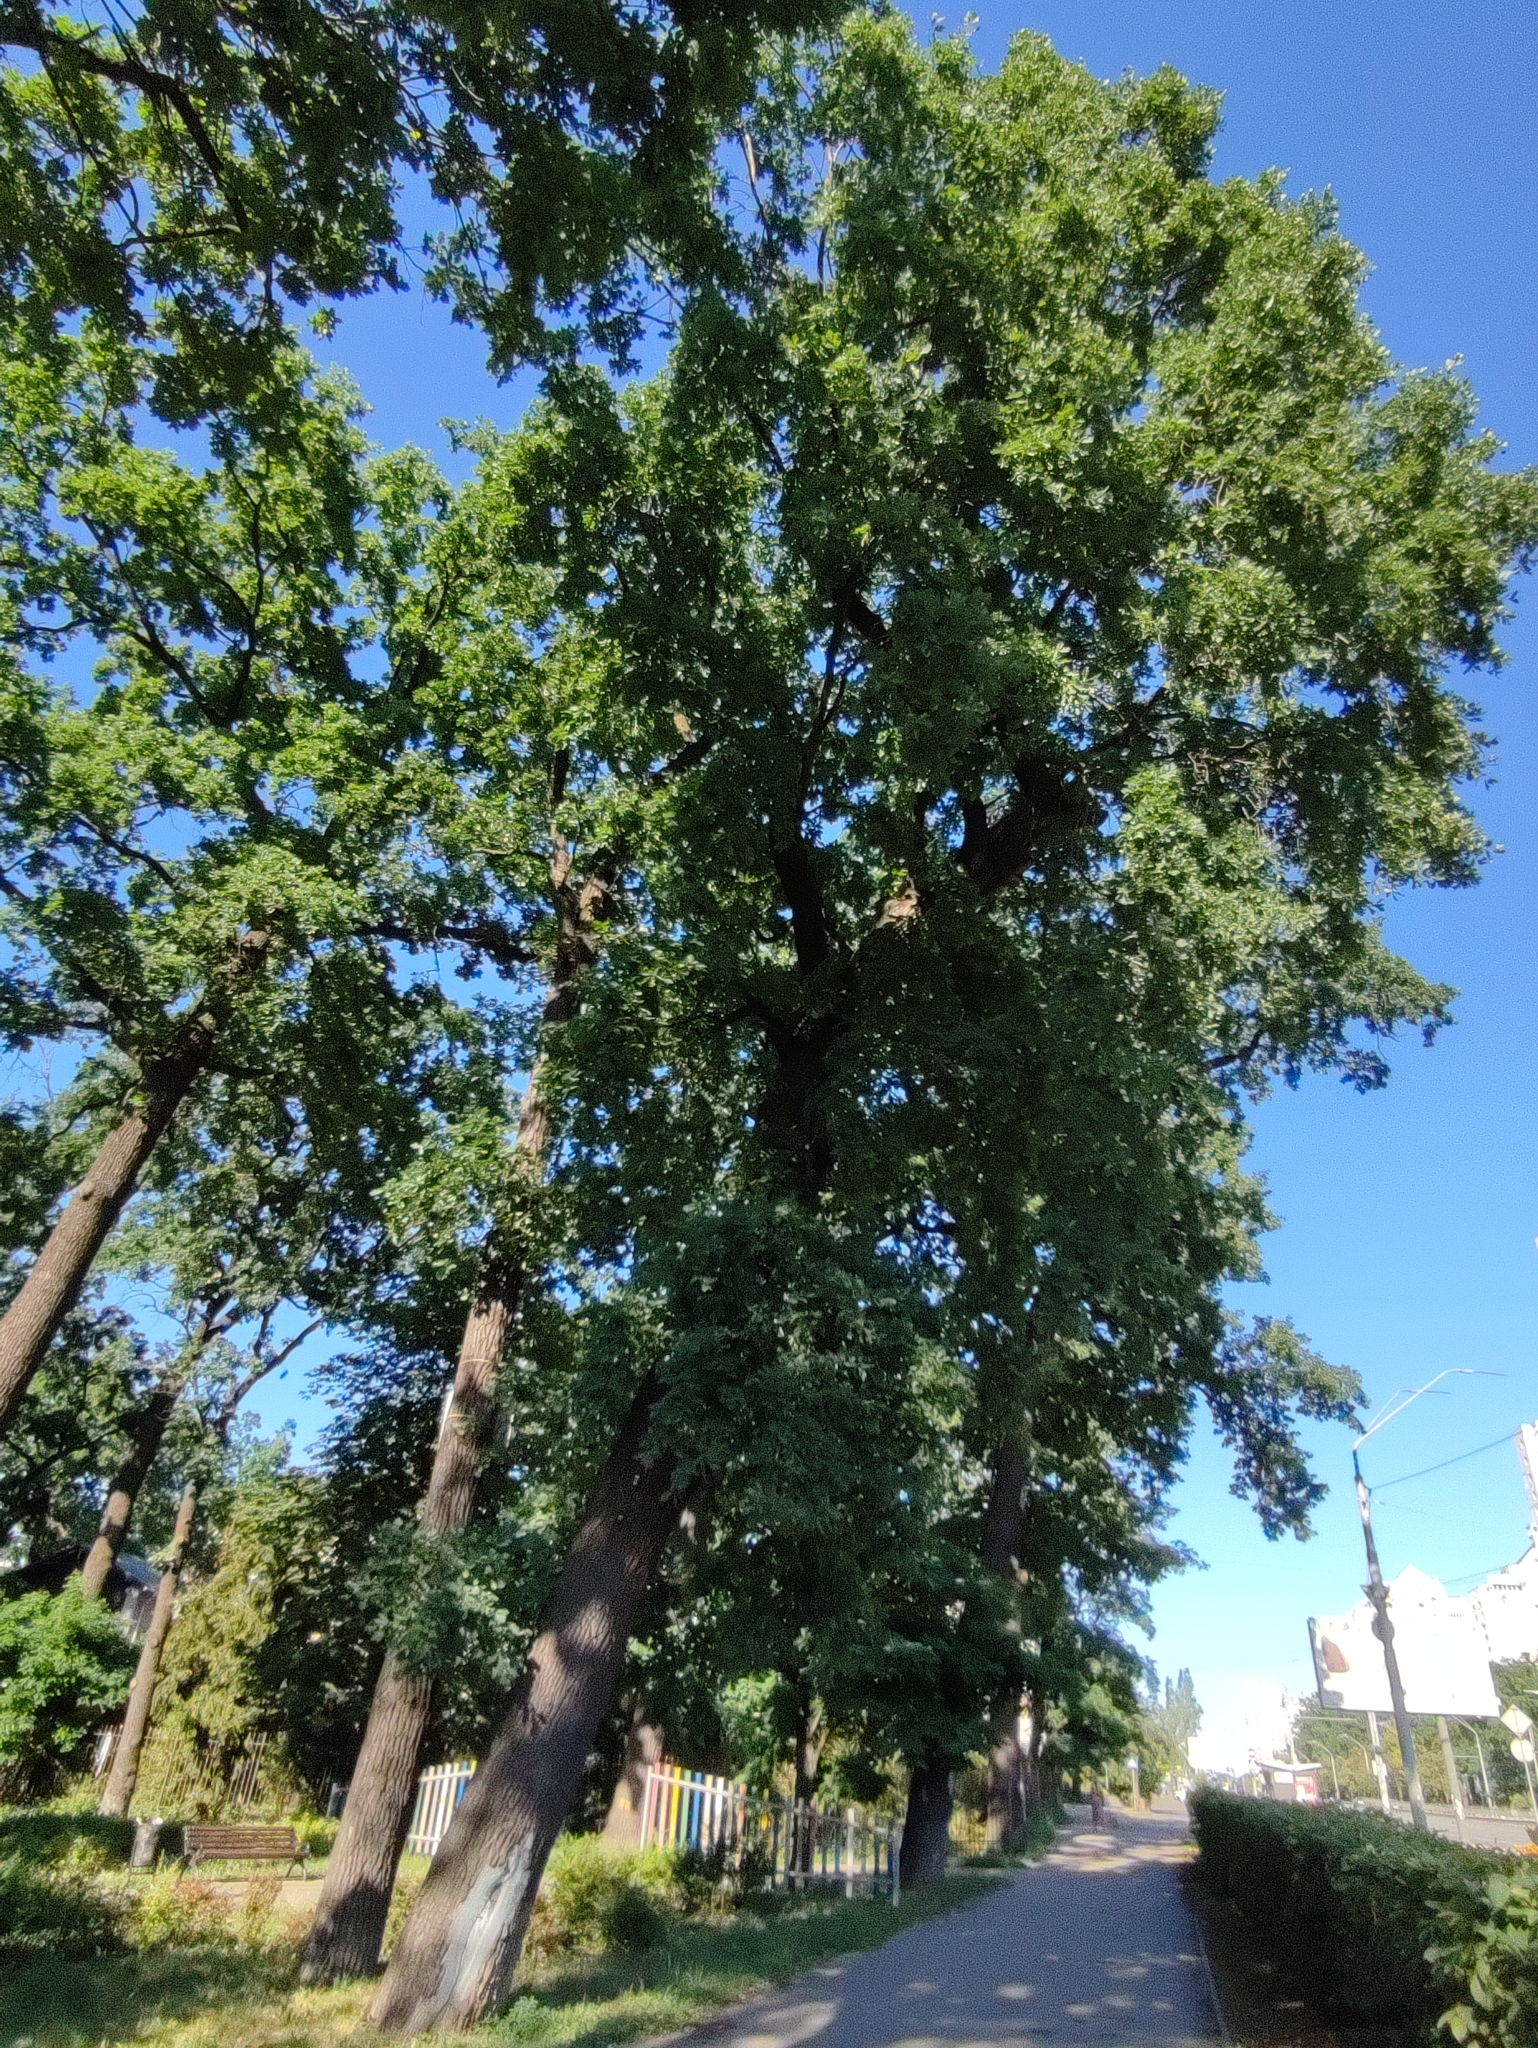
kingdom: Plantae
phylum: Tracheophyta
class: Magnoliopsida
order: Fagales
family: Fagaceae
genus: Quercus
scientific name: Quercus robur
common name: Pedunculate oak
